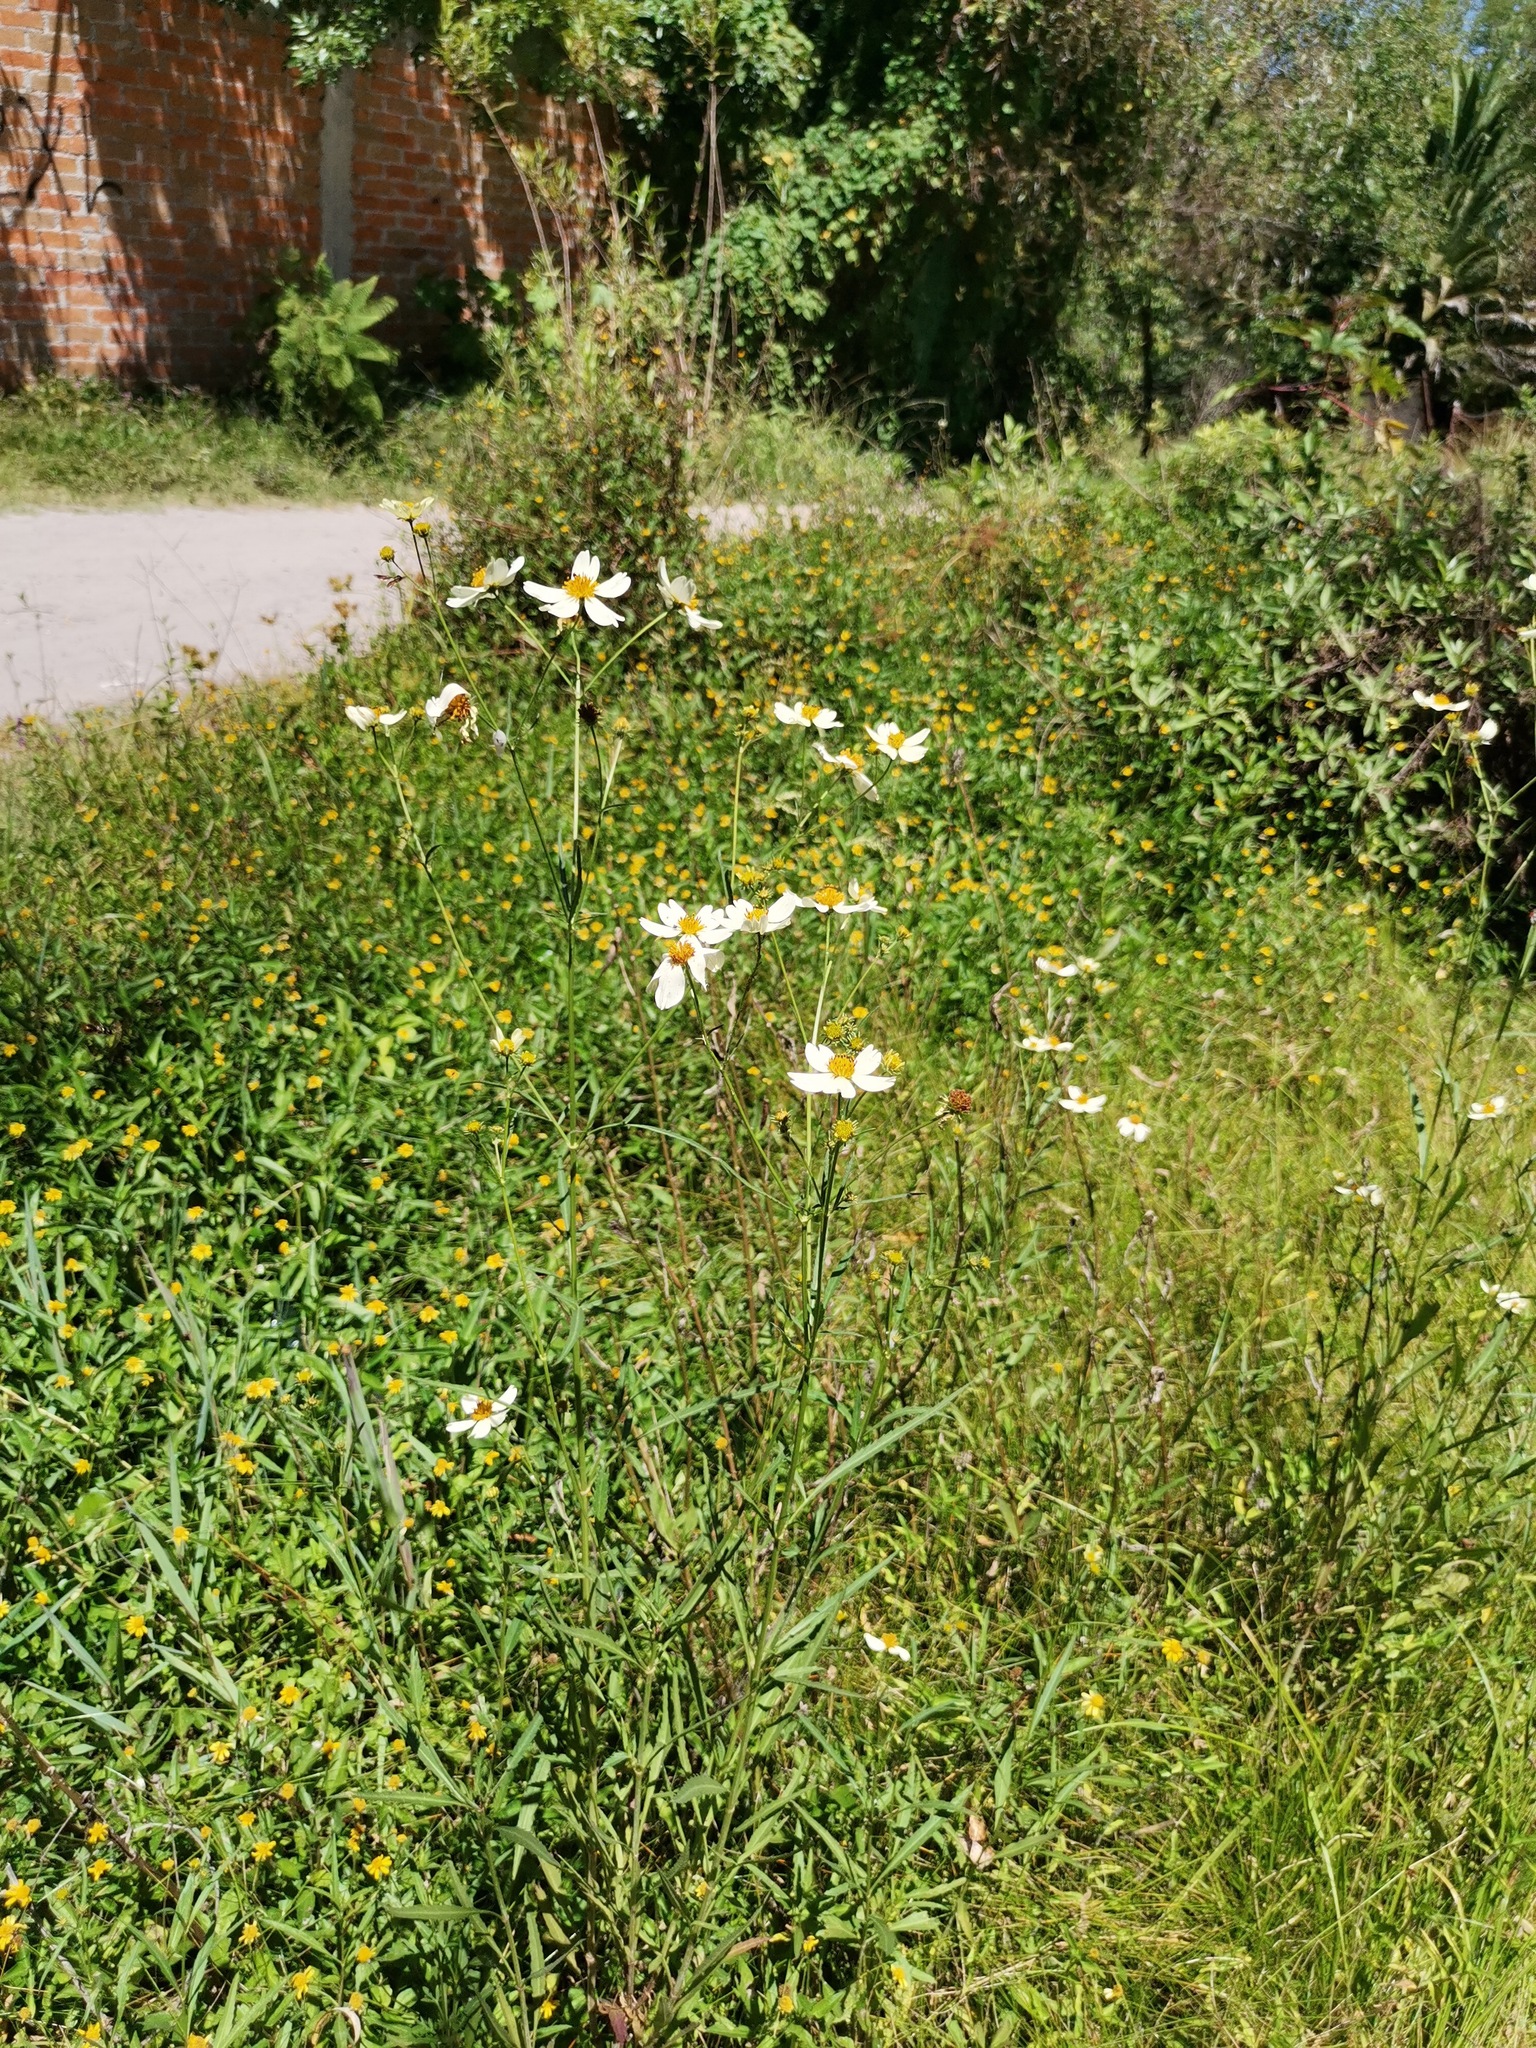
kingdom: Plantae
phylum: Tracheophyta
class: Magnoliopsida
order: Asterales
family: Asteraceae
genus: Bidens
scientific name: Bidens odorata
